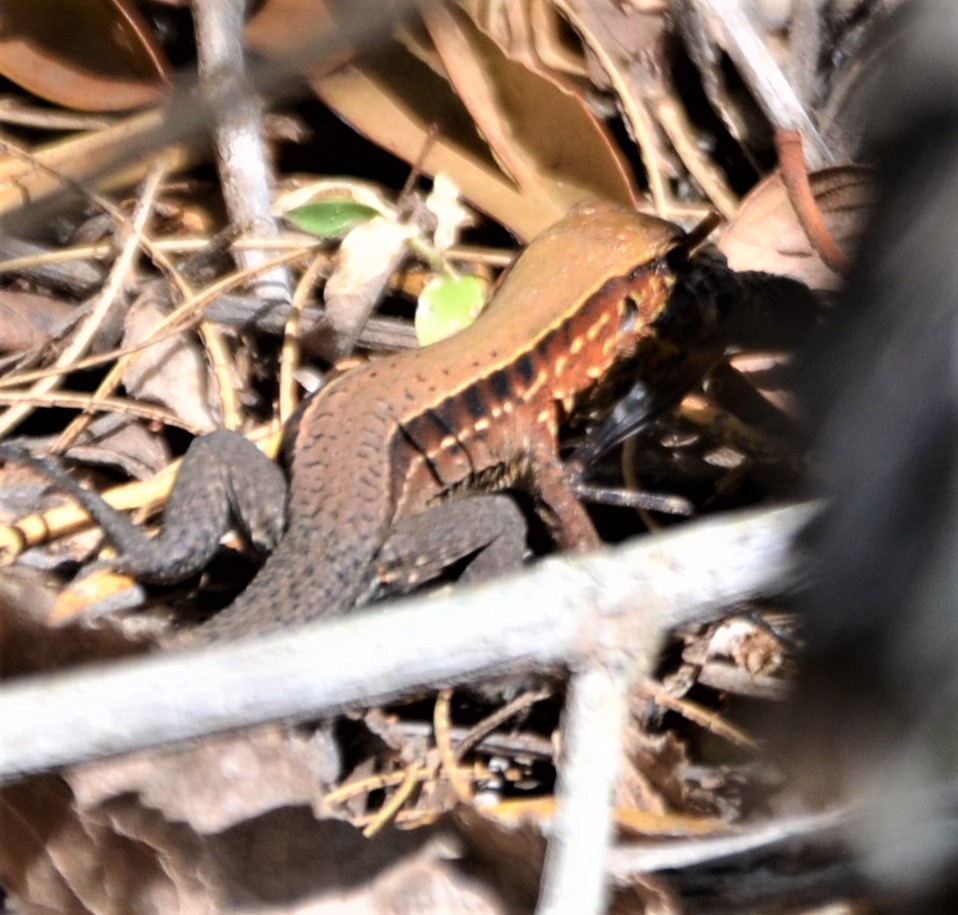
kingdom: Animalia
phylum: Chordata
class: Squamata
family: Teiidae
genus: Holcosus
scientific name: Holcosus undulatus
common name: Rainbow ameiva
